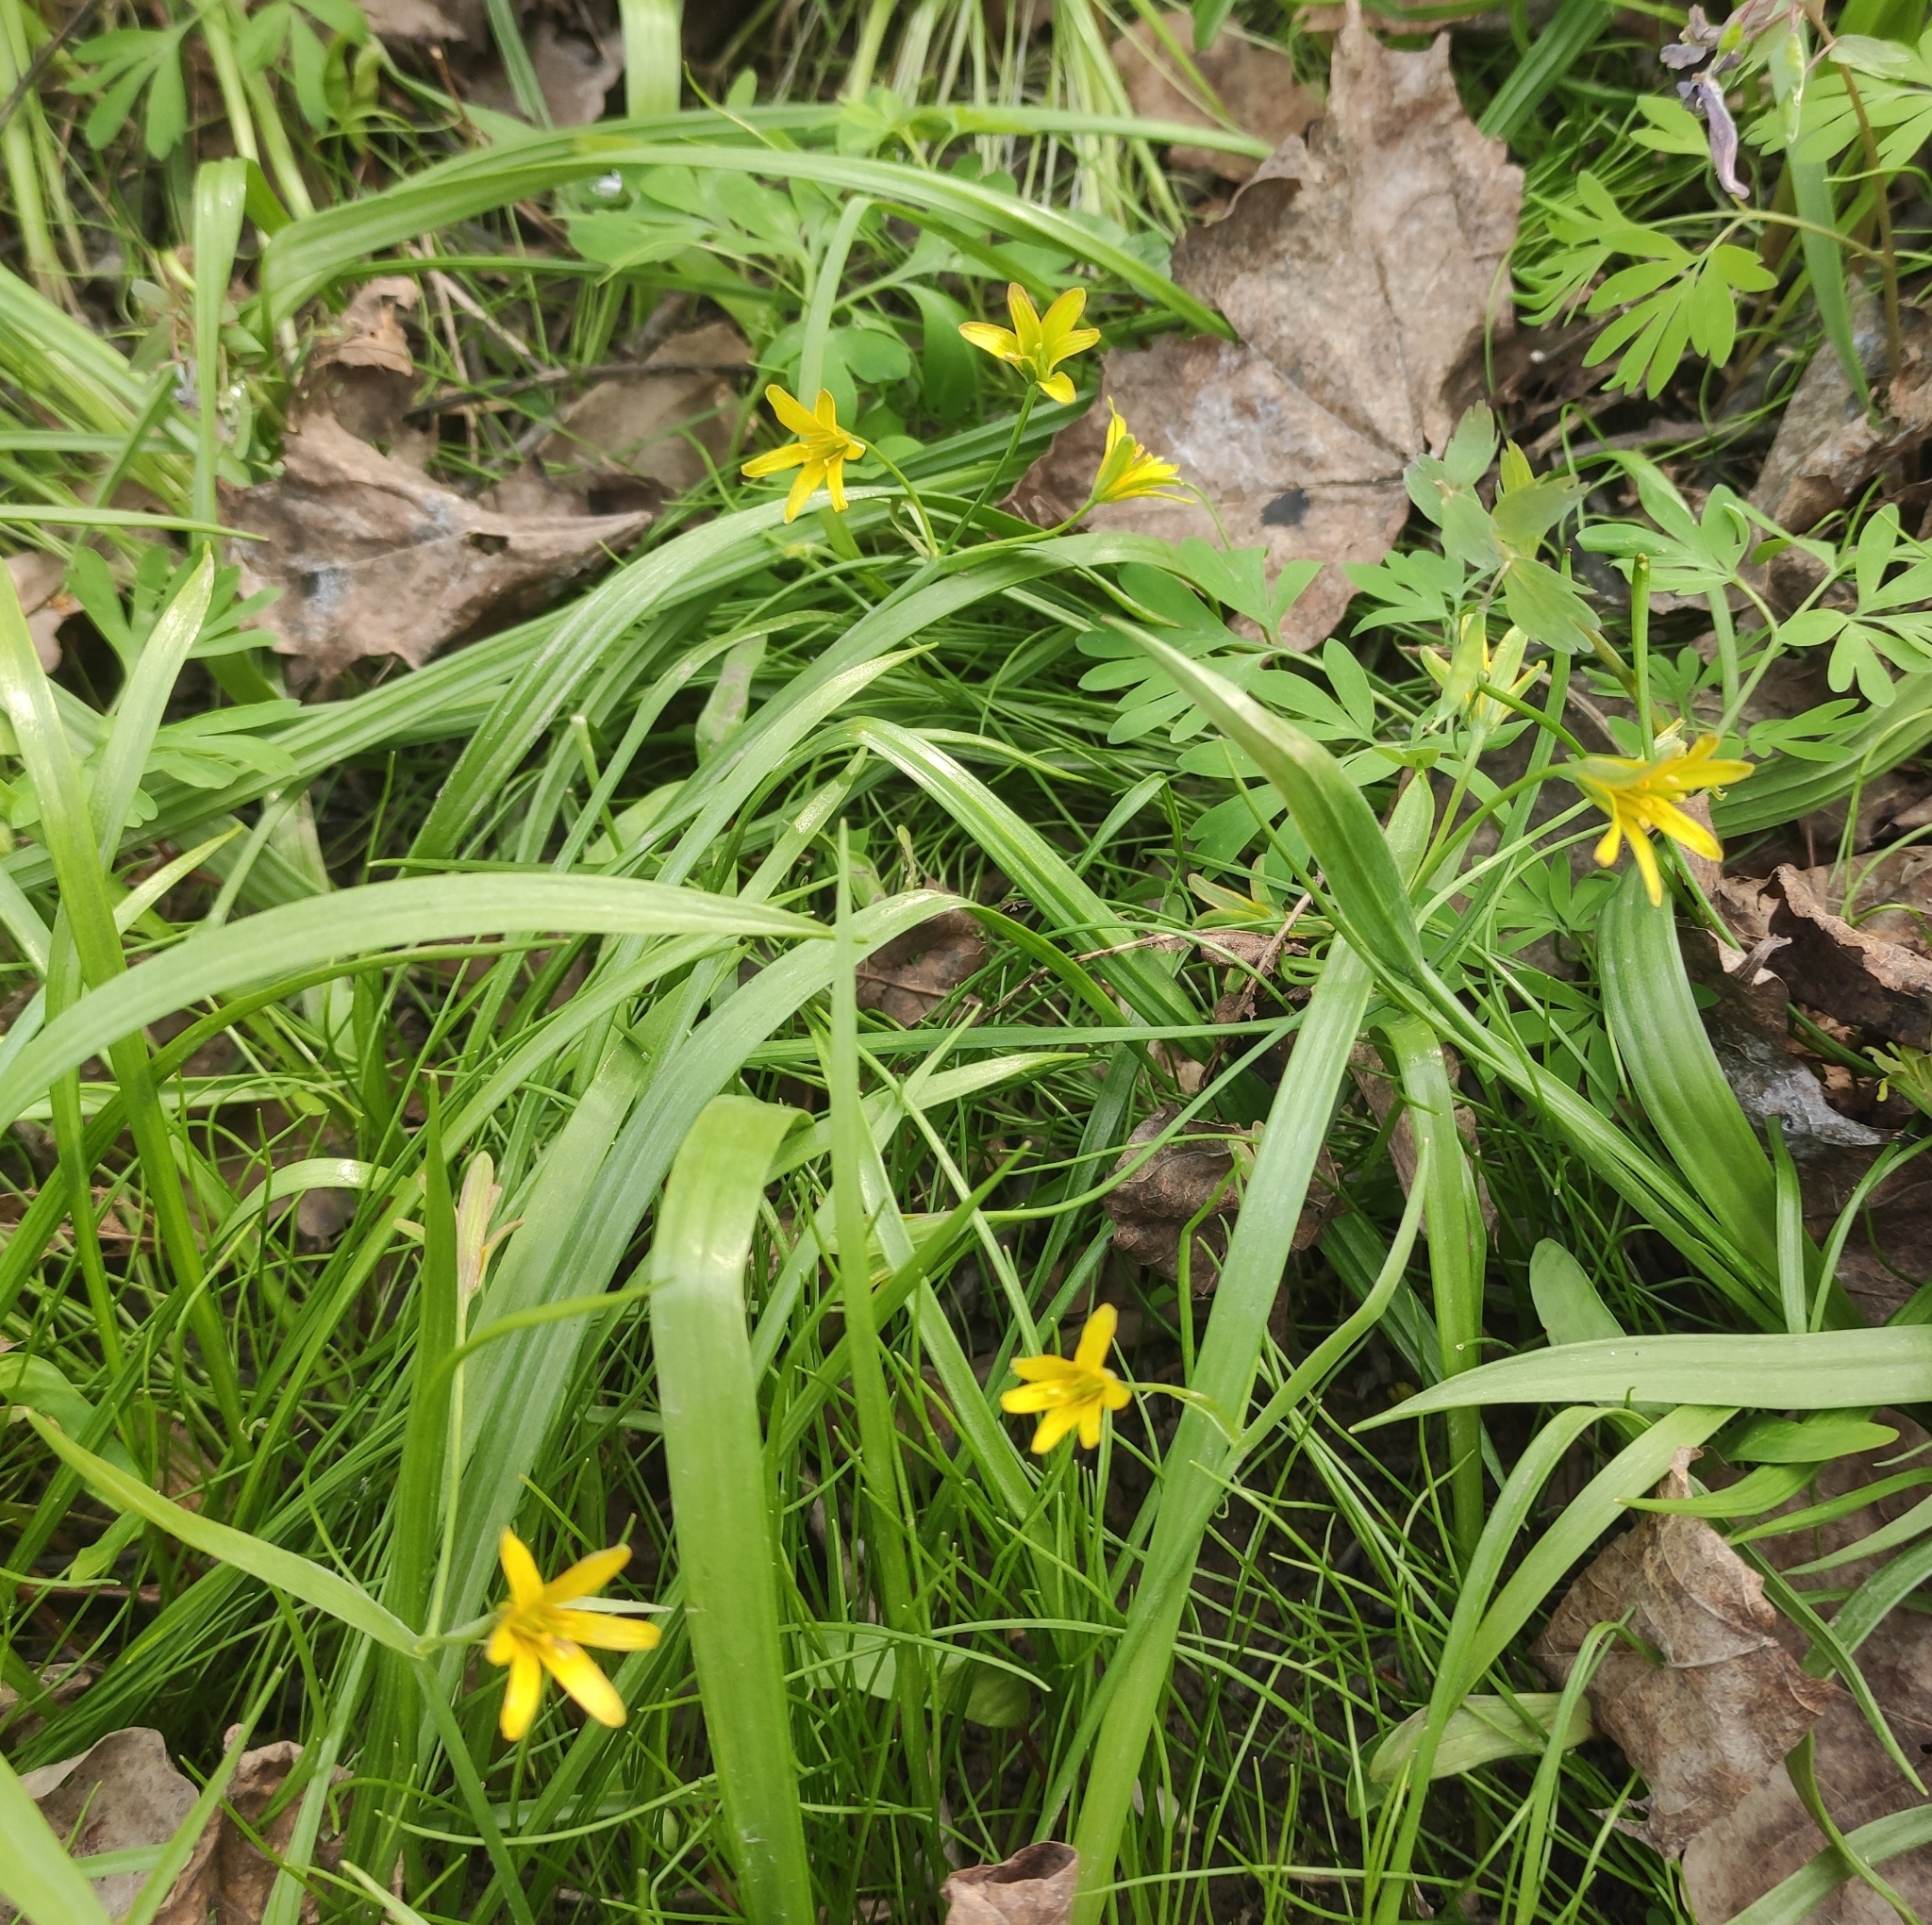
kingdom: Plantae
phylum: Tracheophyta
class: Liliopsida
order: Liliales
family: Liliaceae
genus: Gagea
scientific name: Gagea lutea
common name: Yellow star-of-bethlehem
